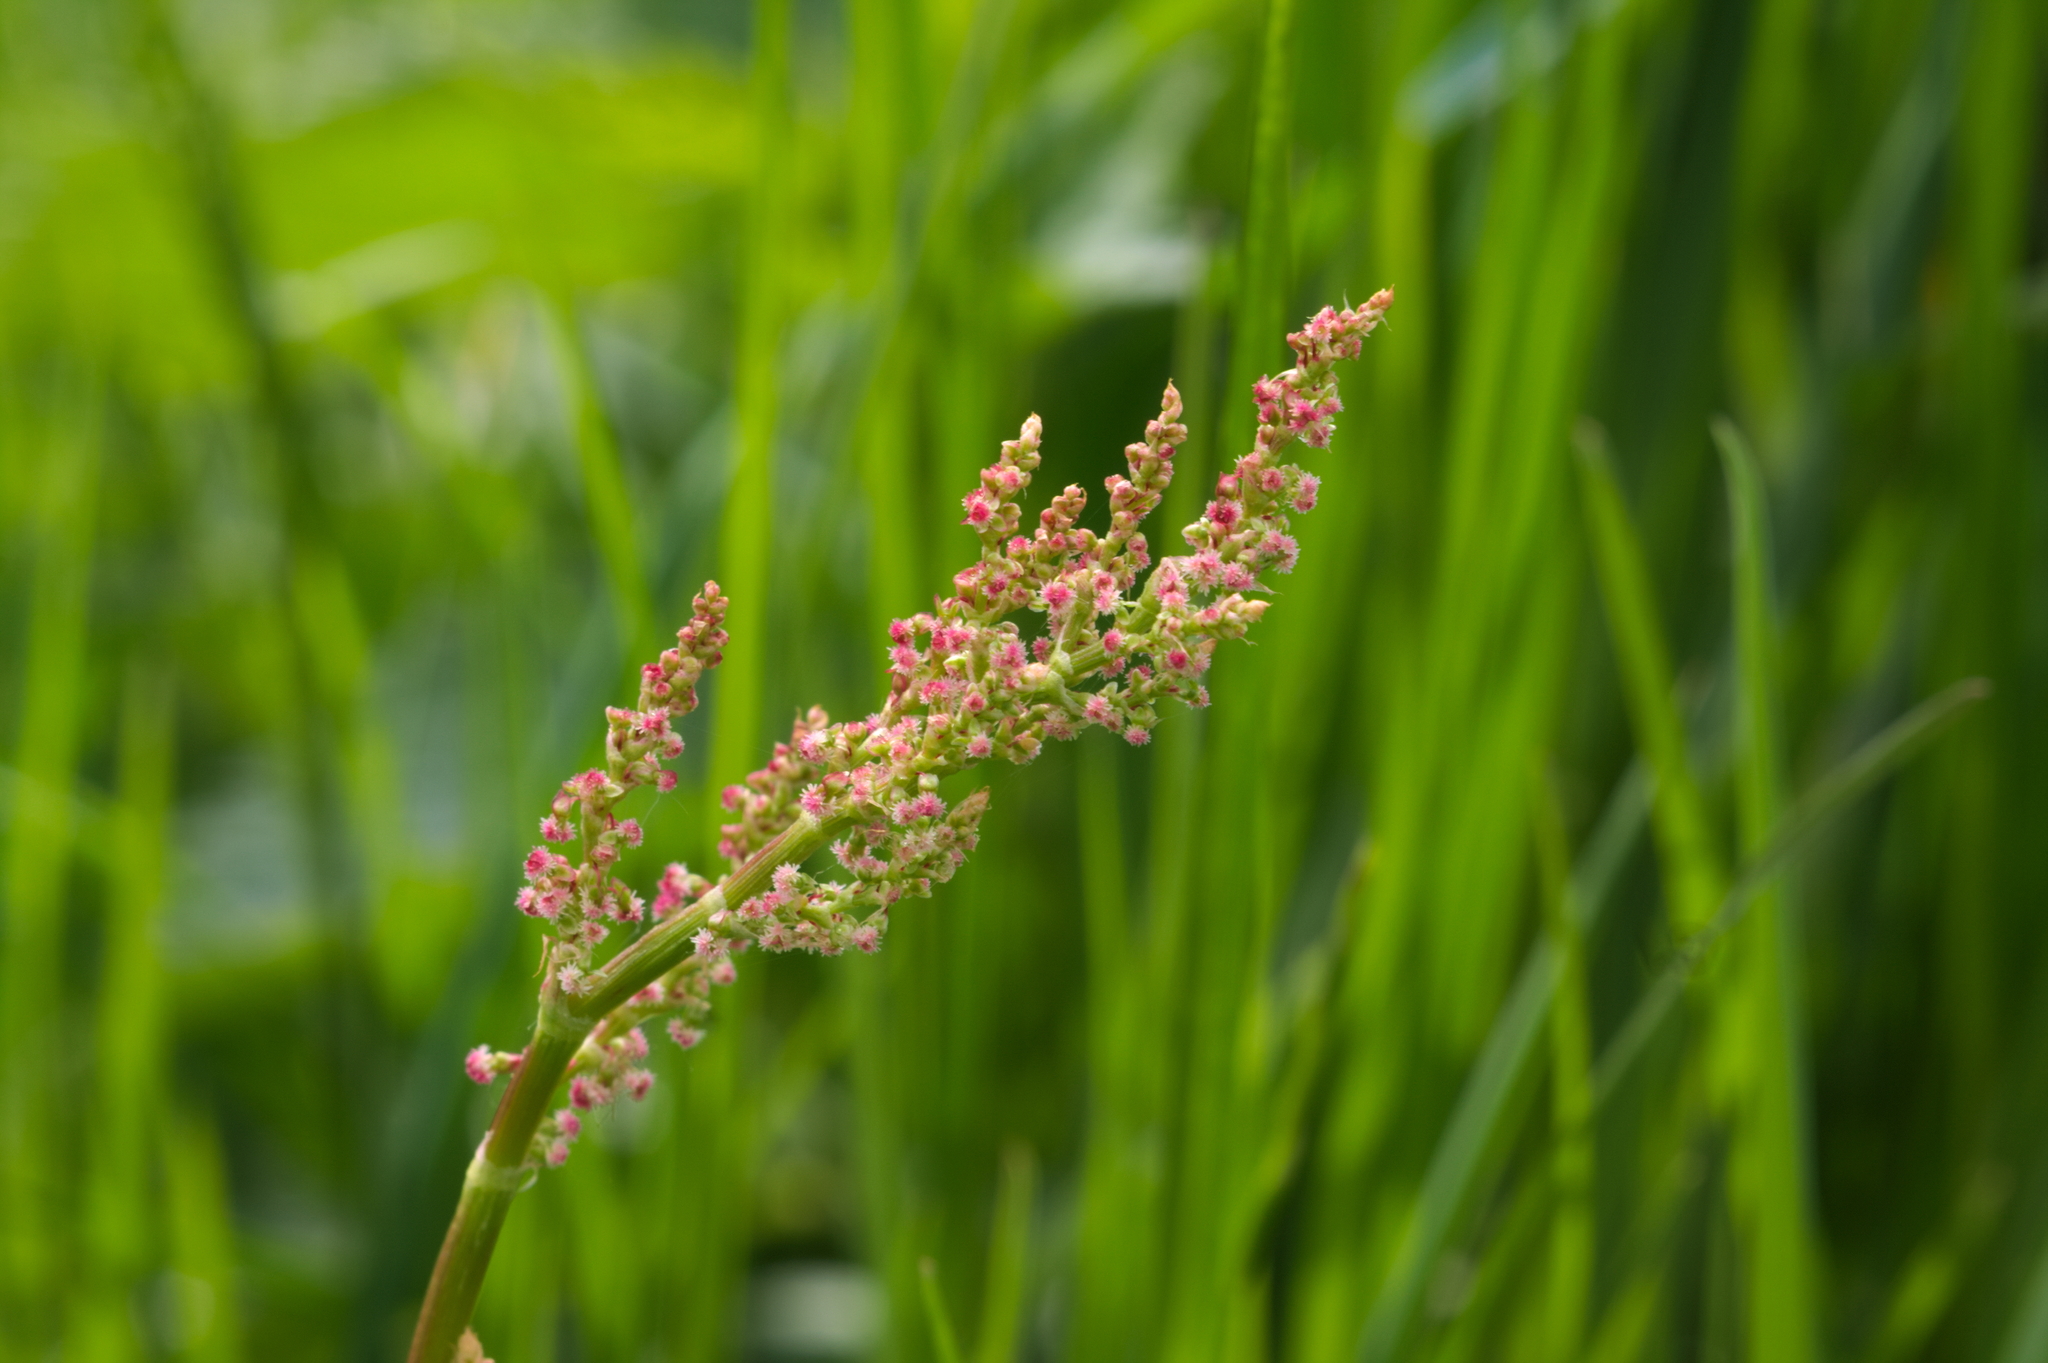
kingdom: Plantae
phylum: Tracheophyta
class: Magnoliopsida
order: Caryophyllales
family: Polygonaceae
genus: Rumex
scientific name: Rumex acetosa
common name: Garden sorrel
